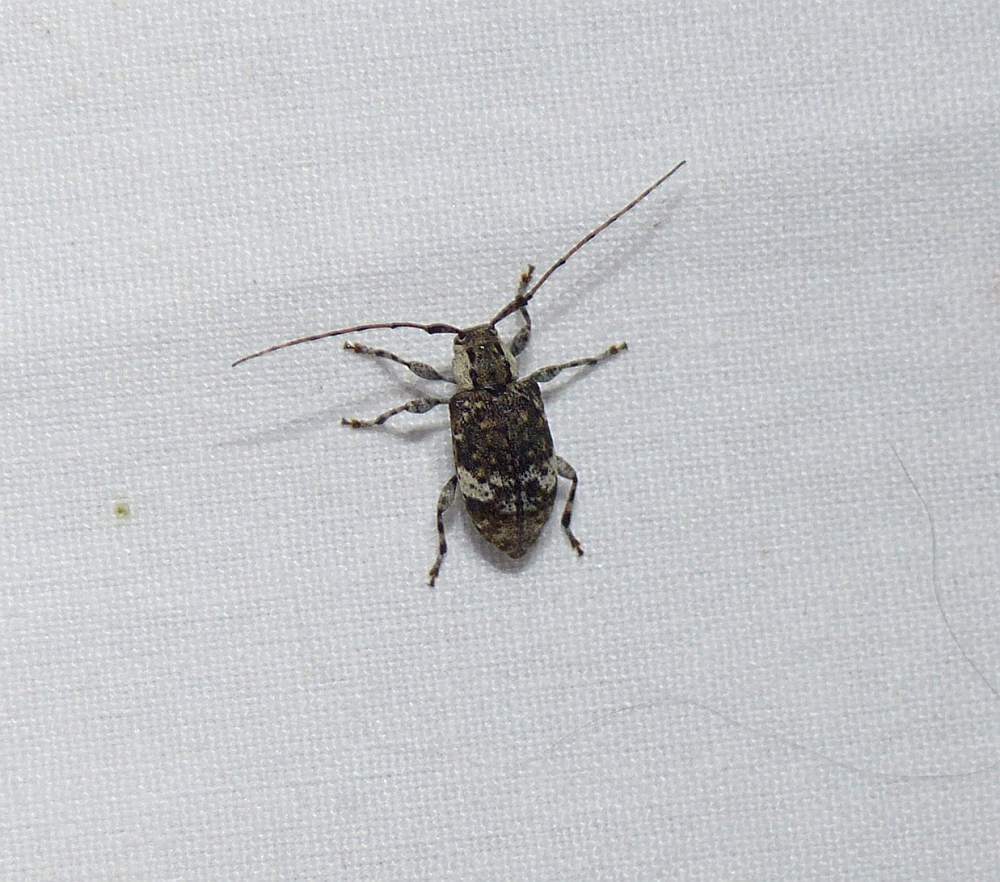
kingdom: Animalia
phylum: Arthropoda
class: Insecta
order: Coleoptera
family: Cerambycidae
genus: Astylopsis
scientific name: Astylopsis macula
